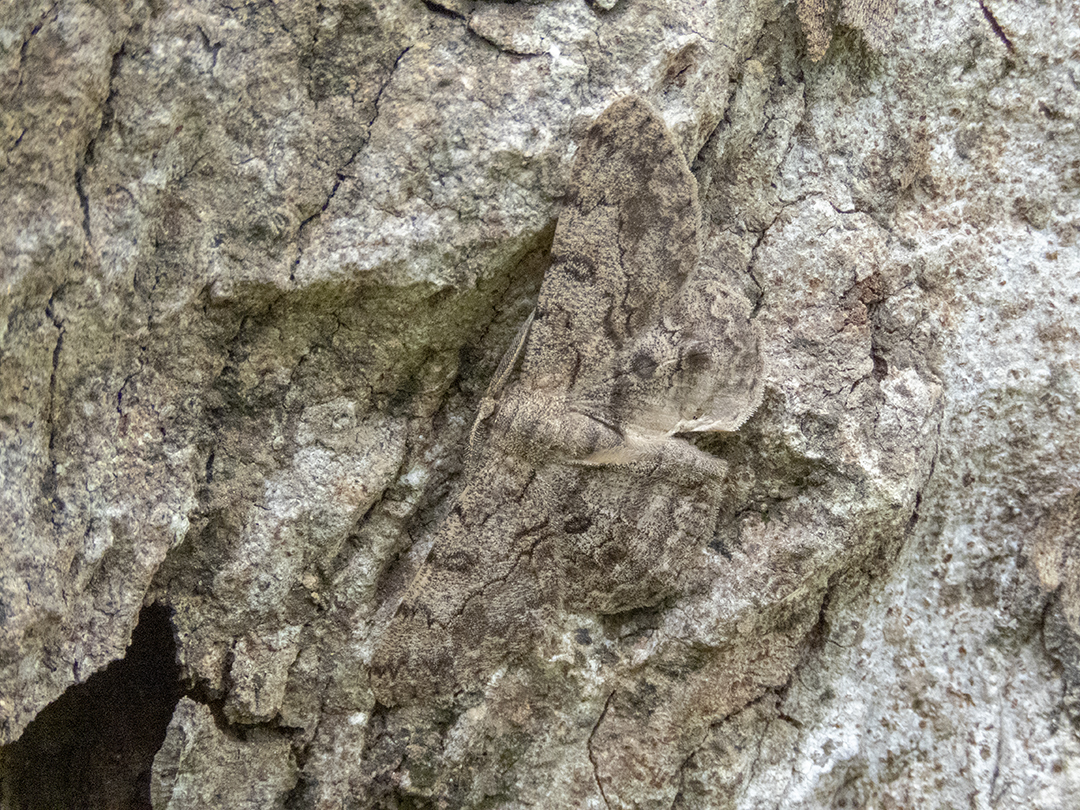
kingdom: Animalia
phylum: Arthropoda
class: Insecta
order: Lepidoptera
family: Geometridae
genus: Hypomecis
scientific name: Hypomecis lioptilaria
